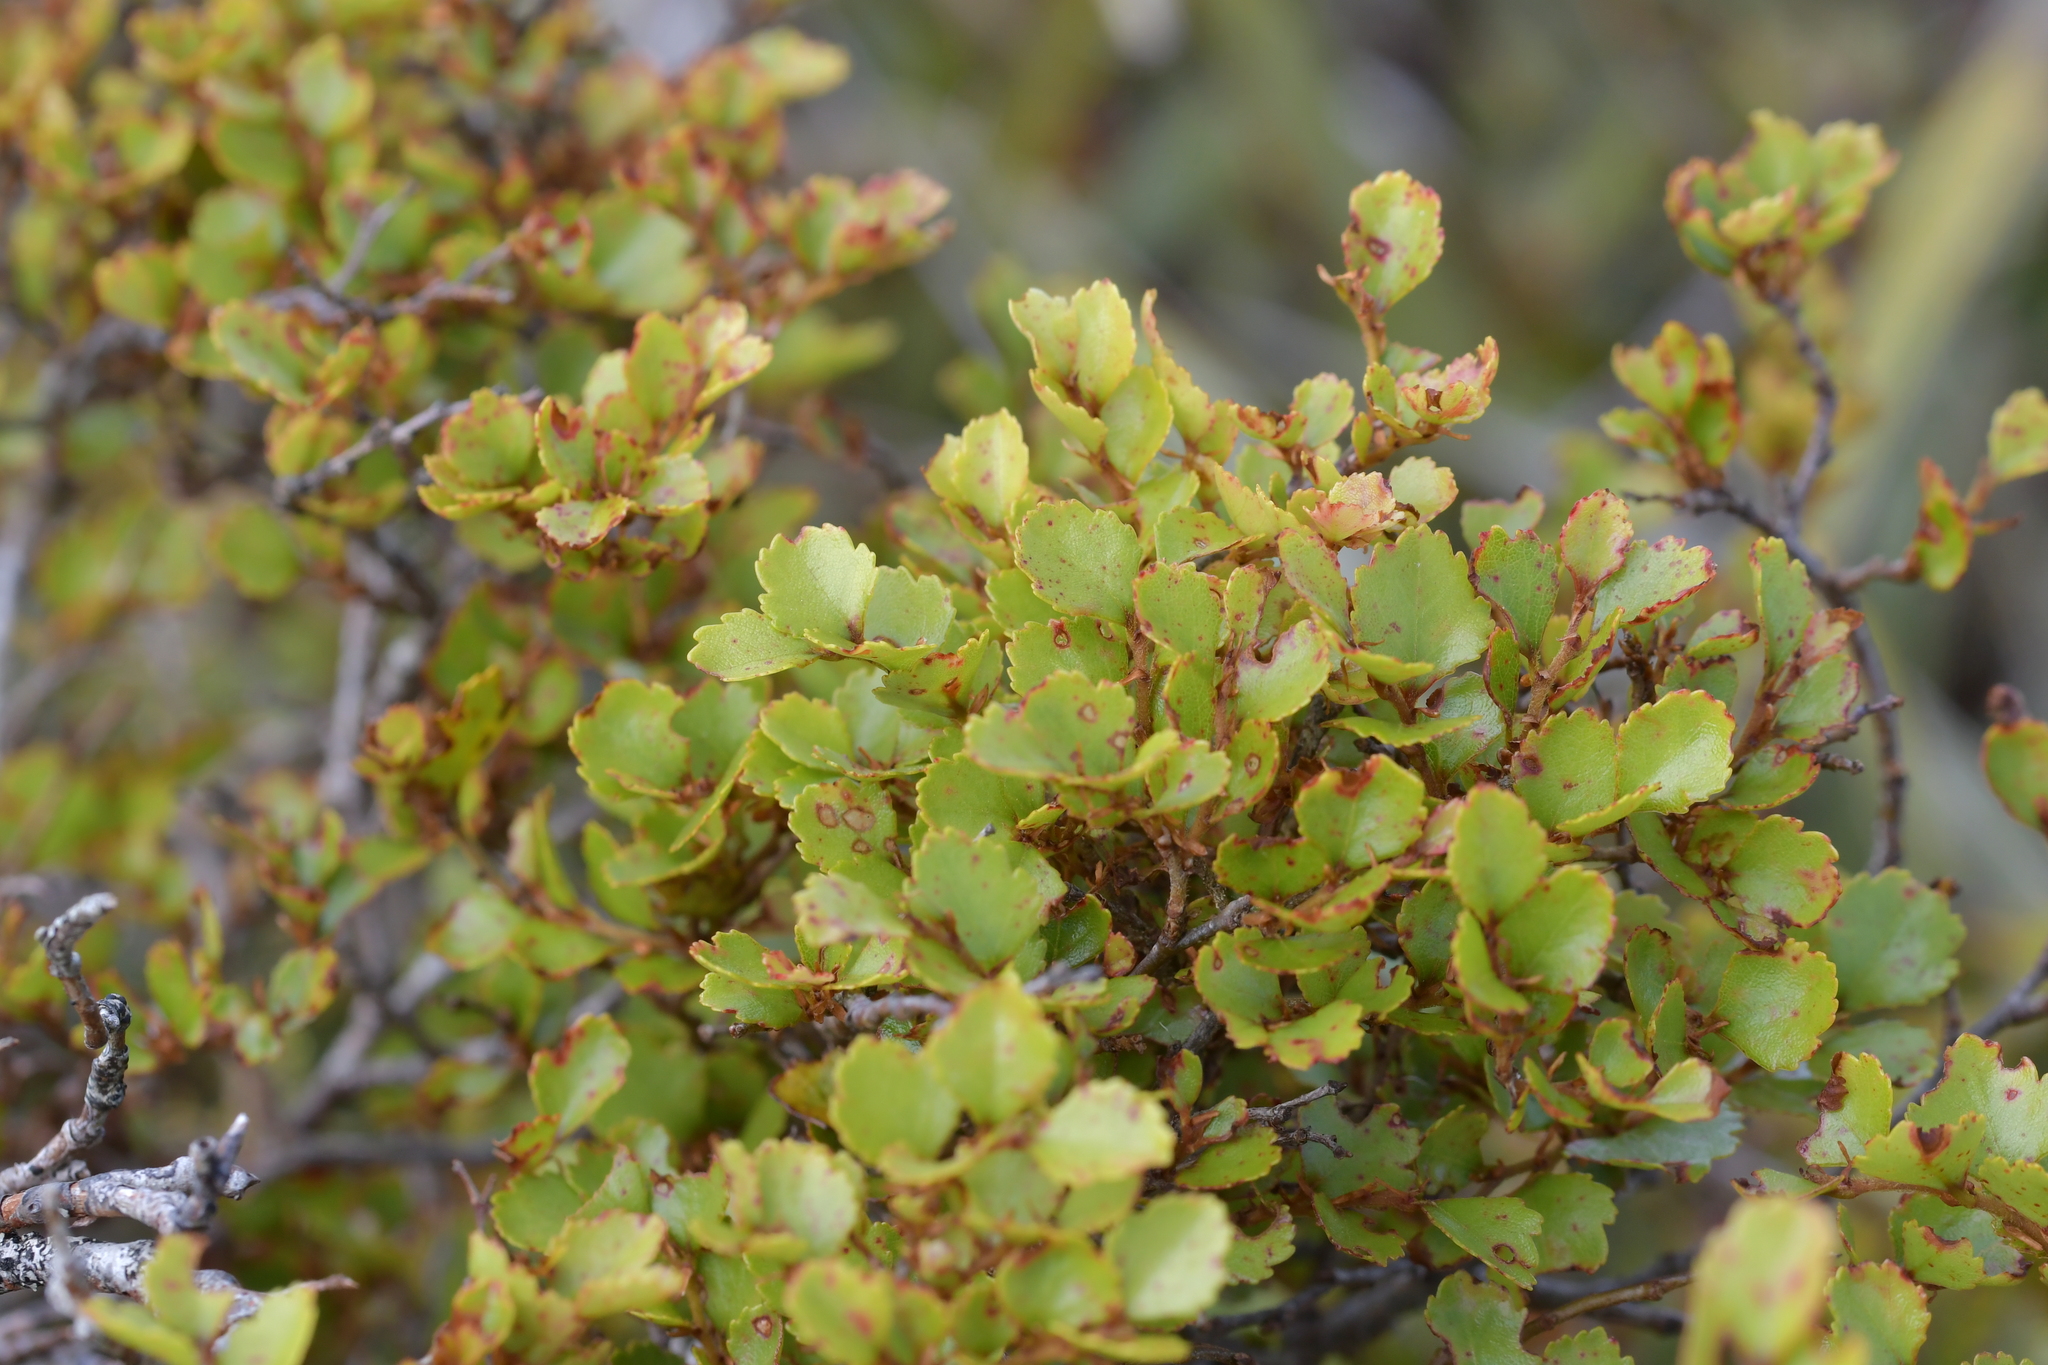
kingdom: Plantae
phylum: Tracheophyta
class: Magnoliopsida
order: Fagales
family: Nothofagaceae
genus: Nothofagus
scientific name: Nothofagus menziesii
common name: Silver beech
